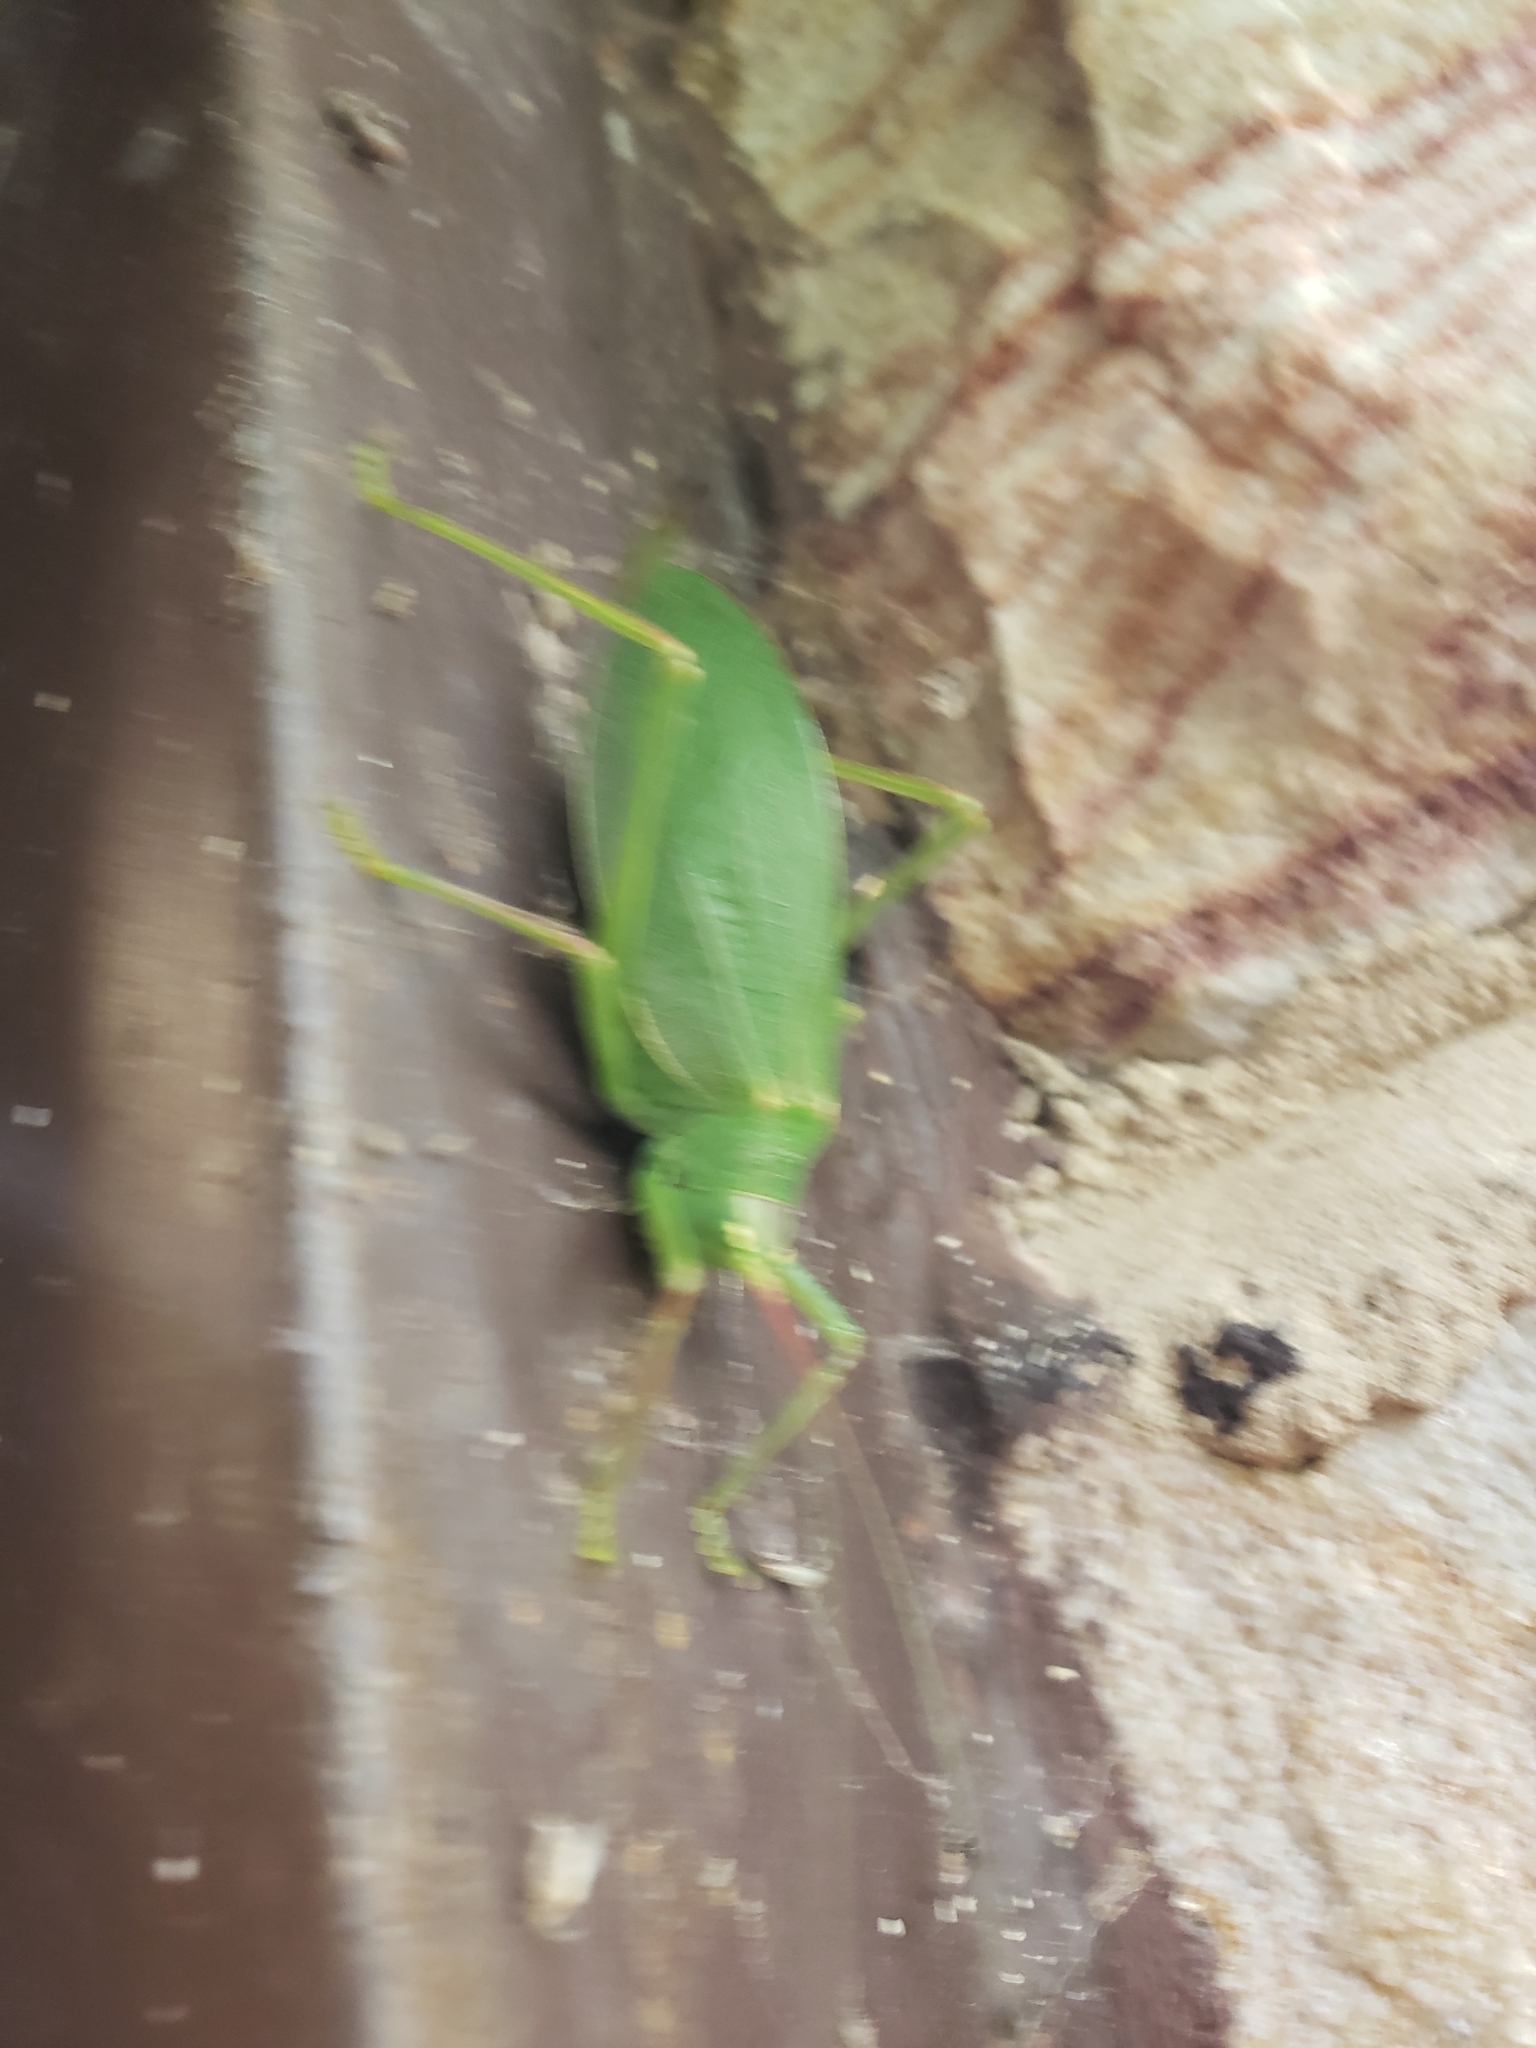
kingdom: Animalia
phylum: Arthropoda
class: Insecta
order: Orthoptera
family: Tettigoniidae
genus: Pterophylla
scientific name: Pterophylla camellifolia
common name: Common true katydid
